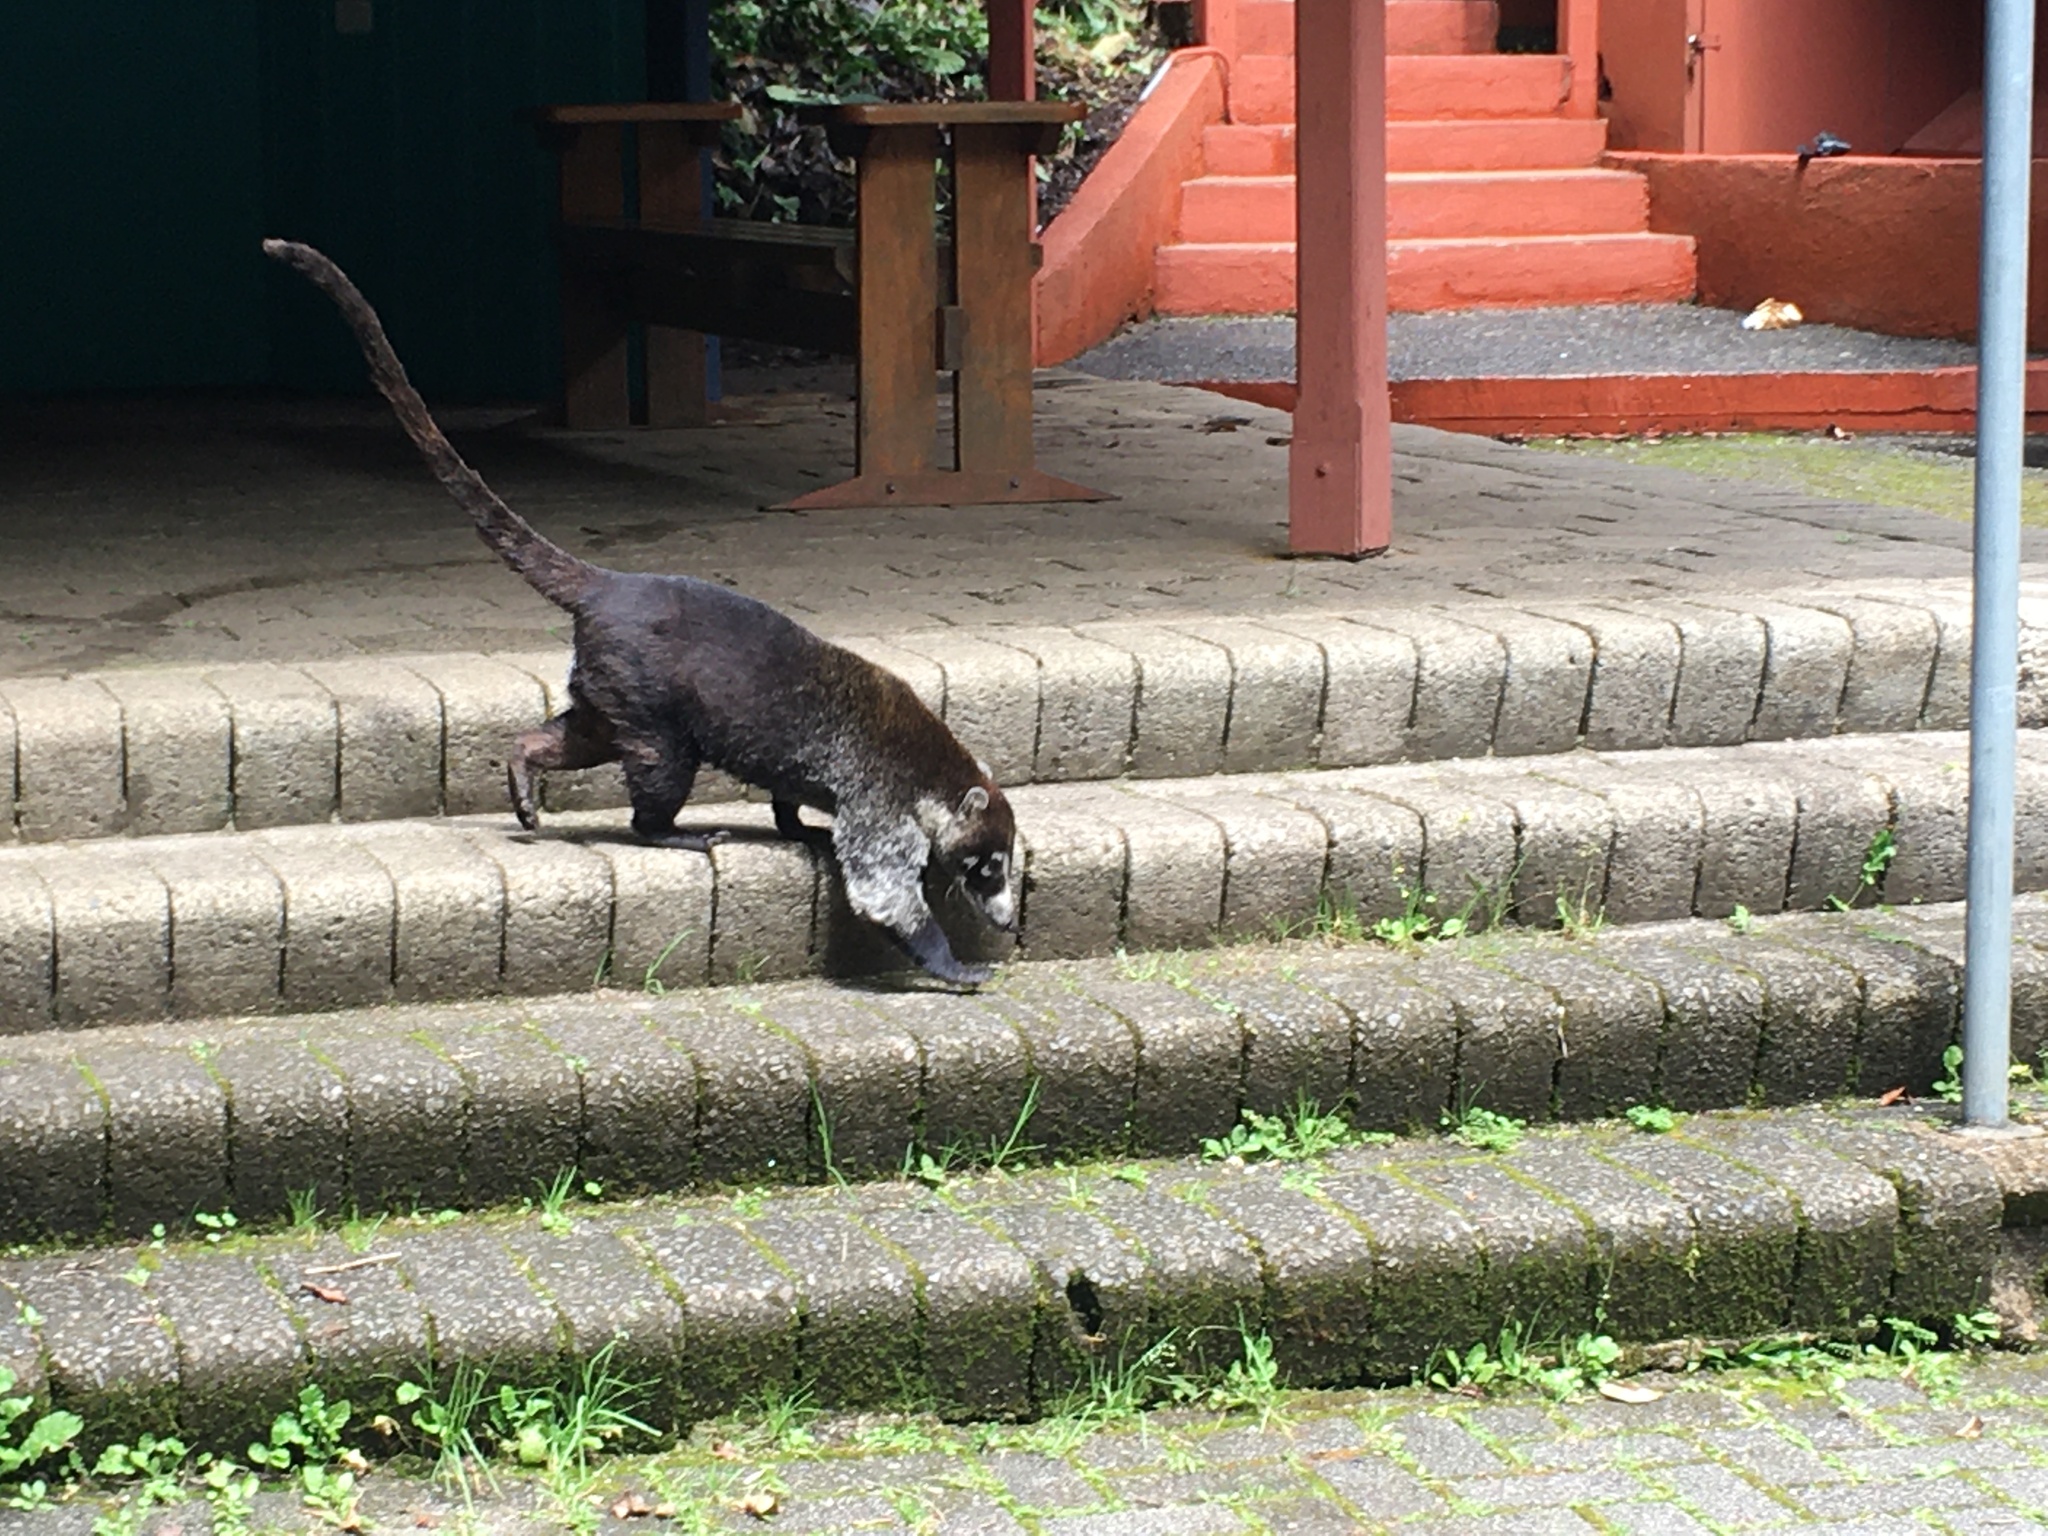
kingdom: Animalia
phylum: Chordata
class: Mammalia
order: Carnivora
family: Procyonidae
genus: Nasua
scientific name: Nasua narica
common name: White-nosed coati
